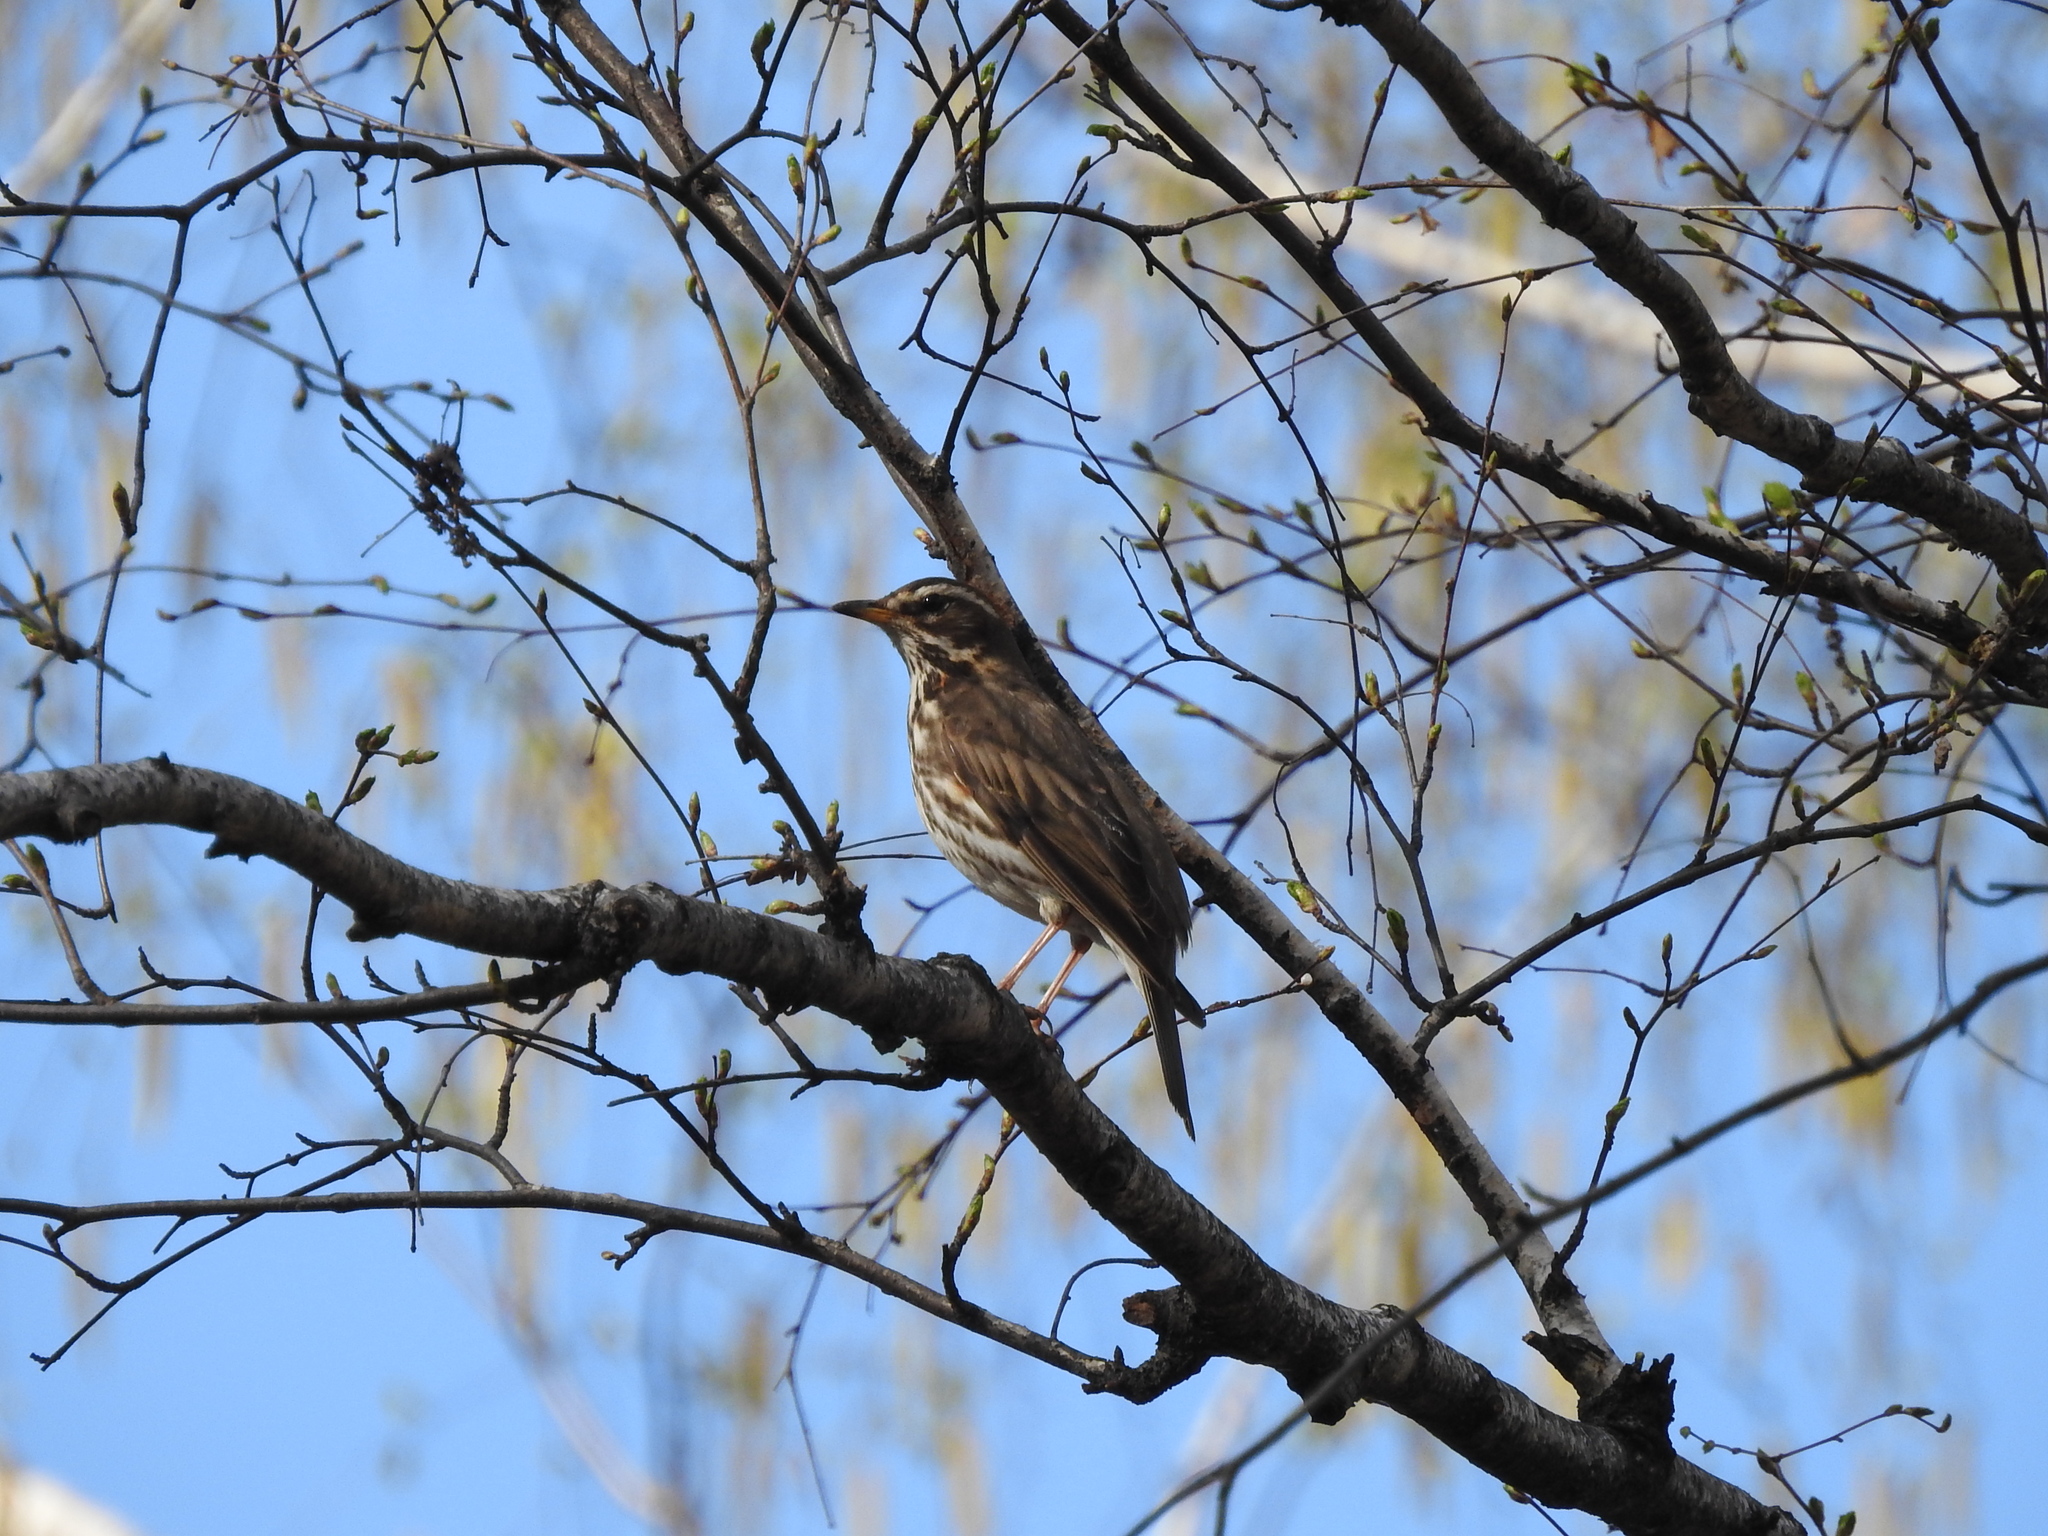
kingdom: Animalia
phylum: Chordata
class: Aves
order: Passeriformes
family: Turdidae
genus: Turdus
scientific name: Turdus iliacus
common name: Redwing
